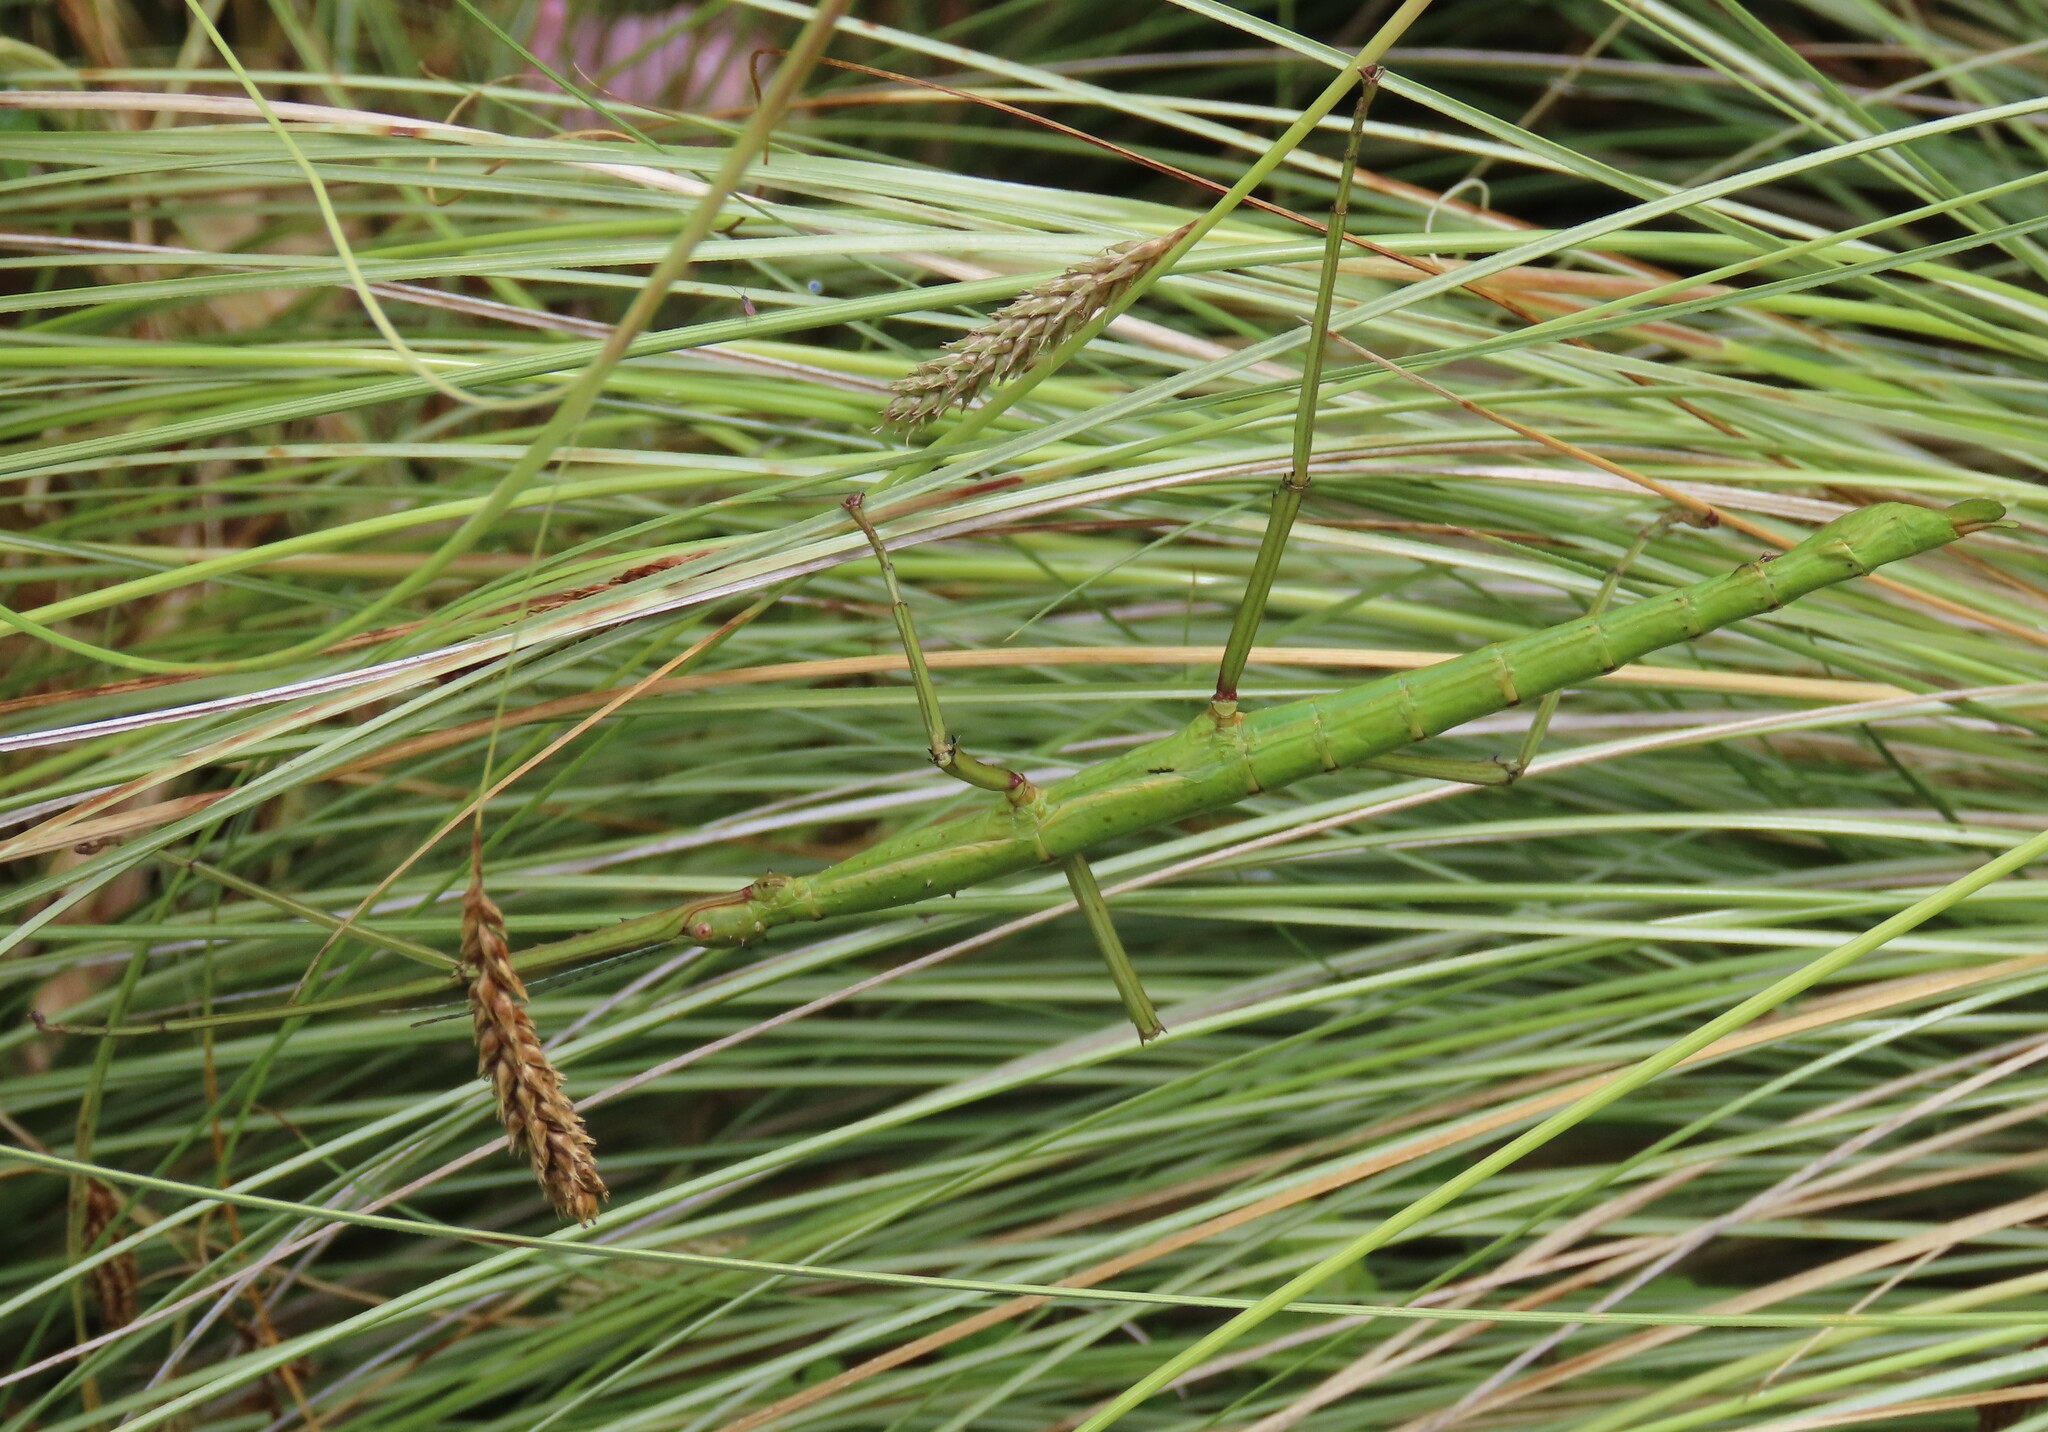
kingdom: Animalia
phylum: Arthropoda
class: Insecta
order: Phasmida
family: Phasmatidae
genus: Acanthoxyla
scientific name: Acanthoxyla inermis
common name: Unarmed stick insect
